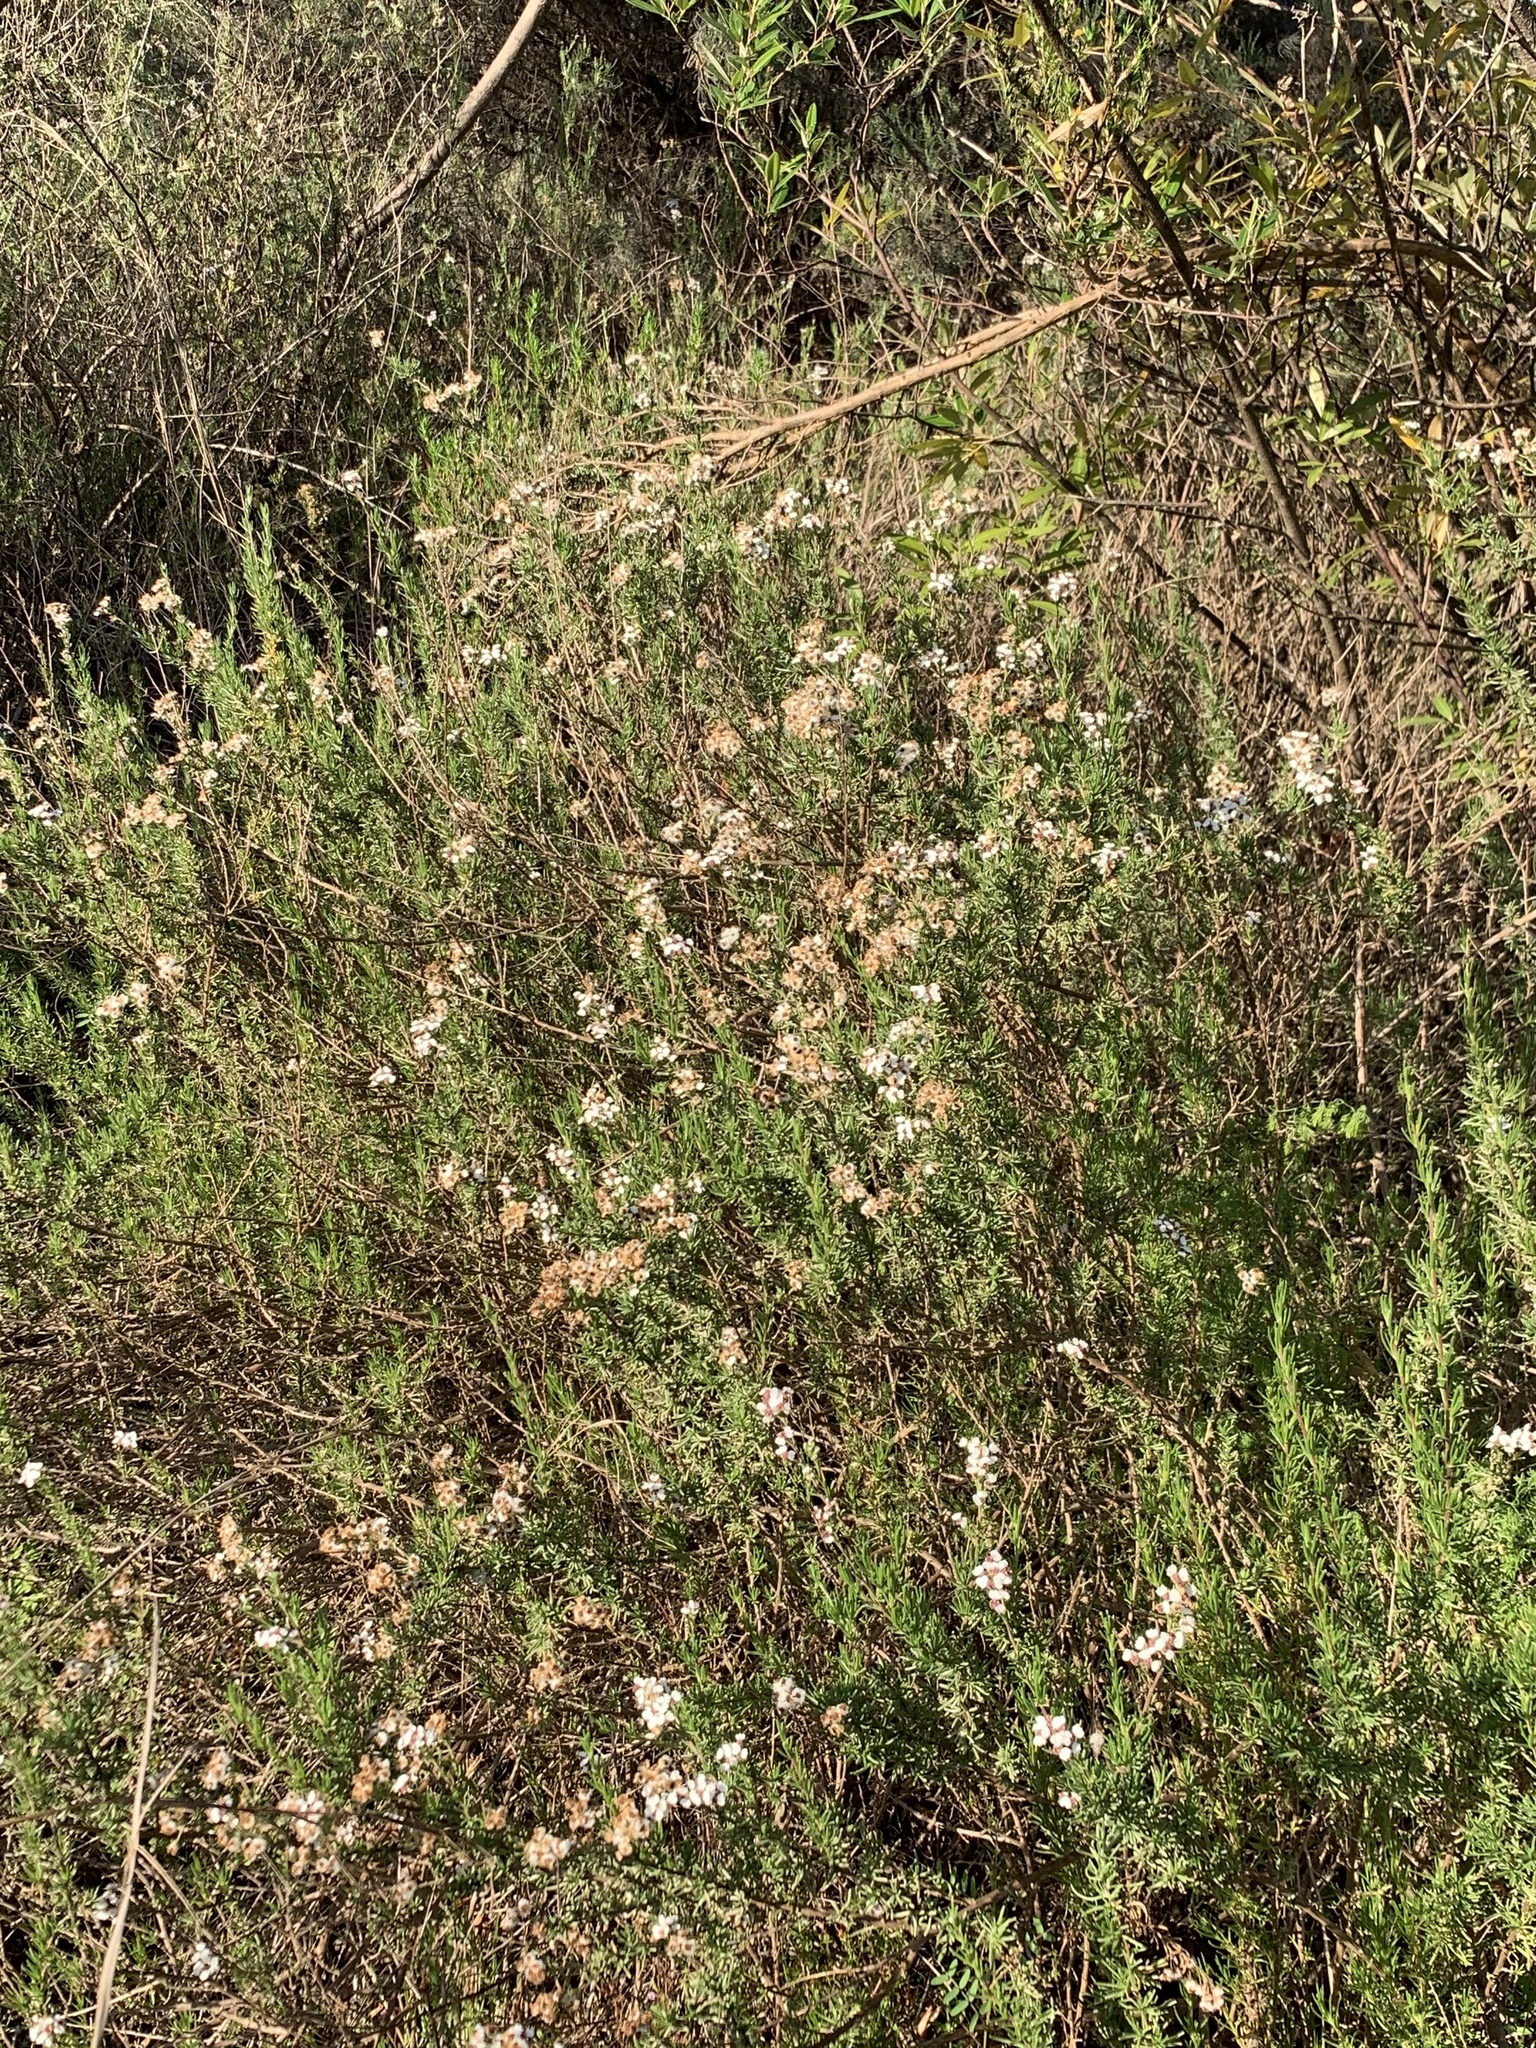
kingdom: Plantae
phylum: Tracheophyta
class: Magnoliopsida
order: Asterales
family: Asteraceae
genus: Eriocephalus
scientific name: Eriocephalus africanus
